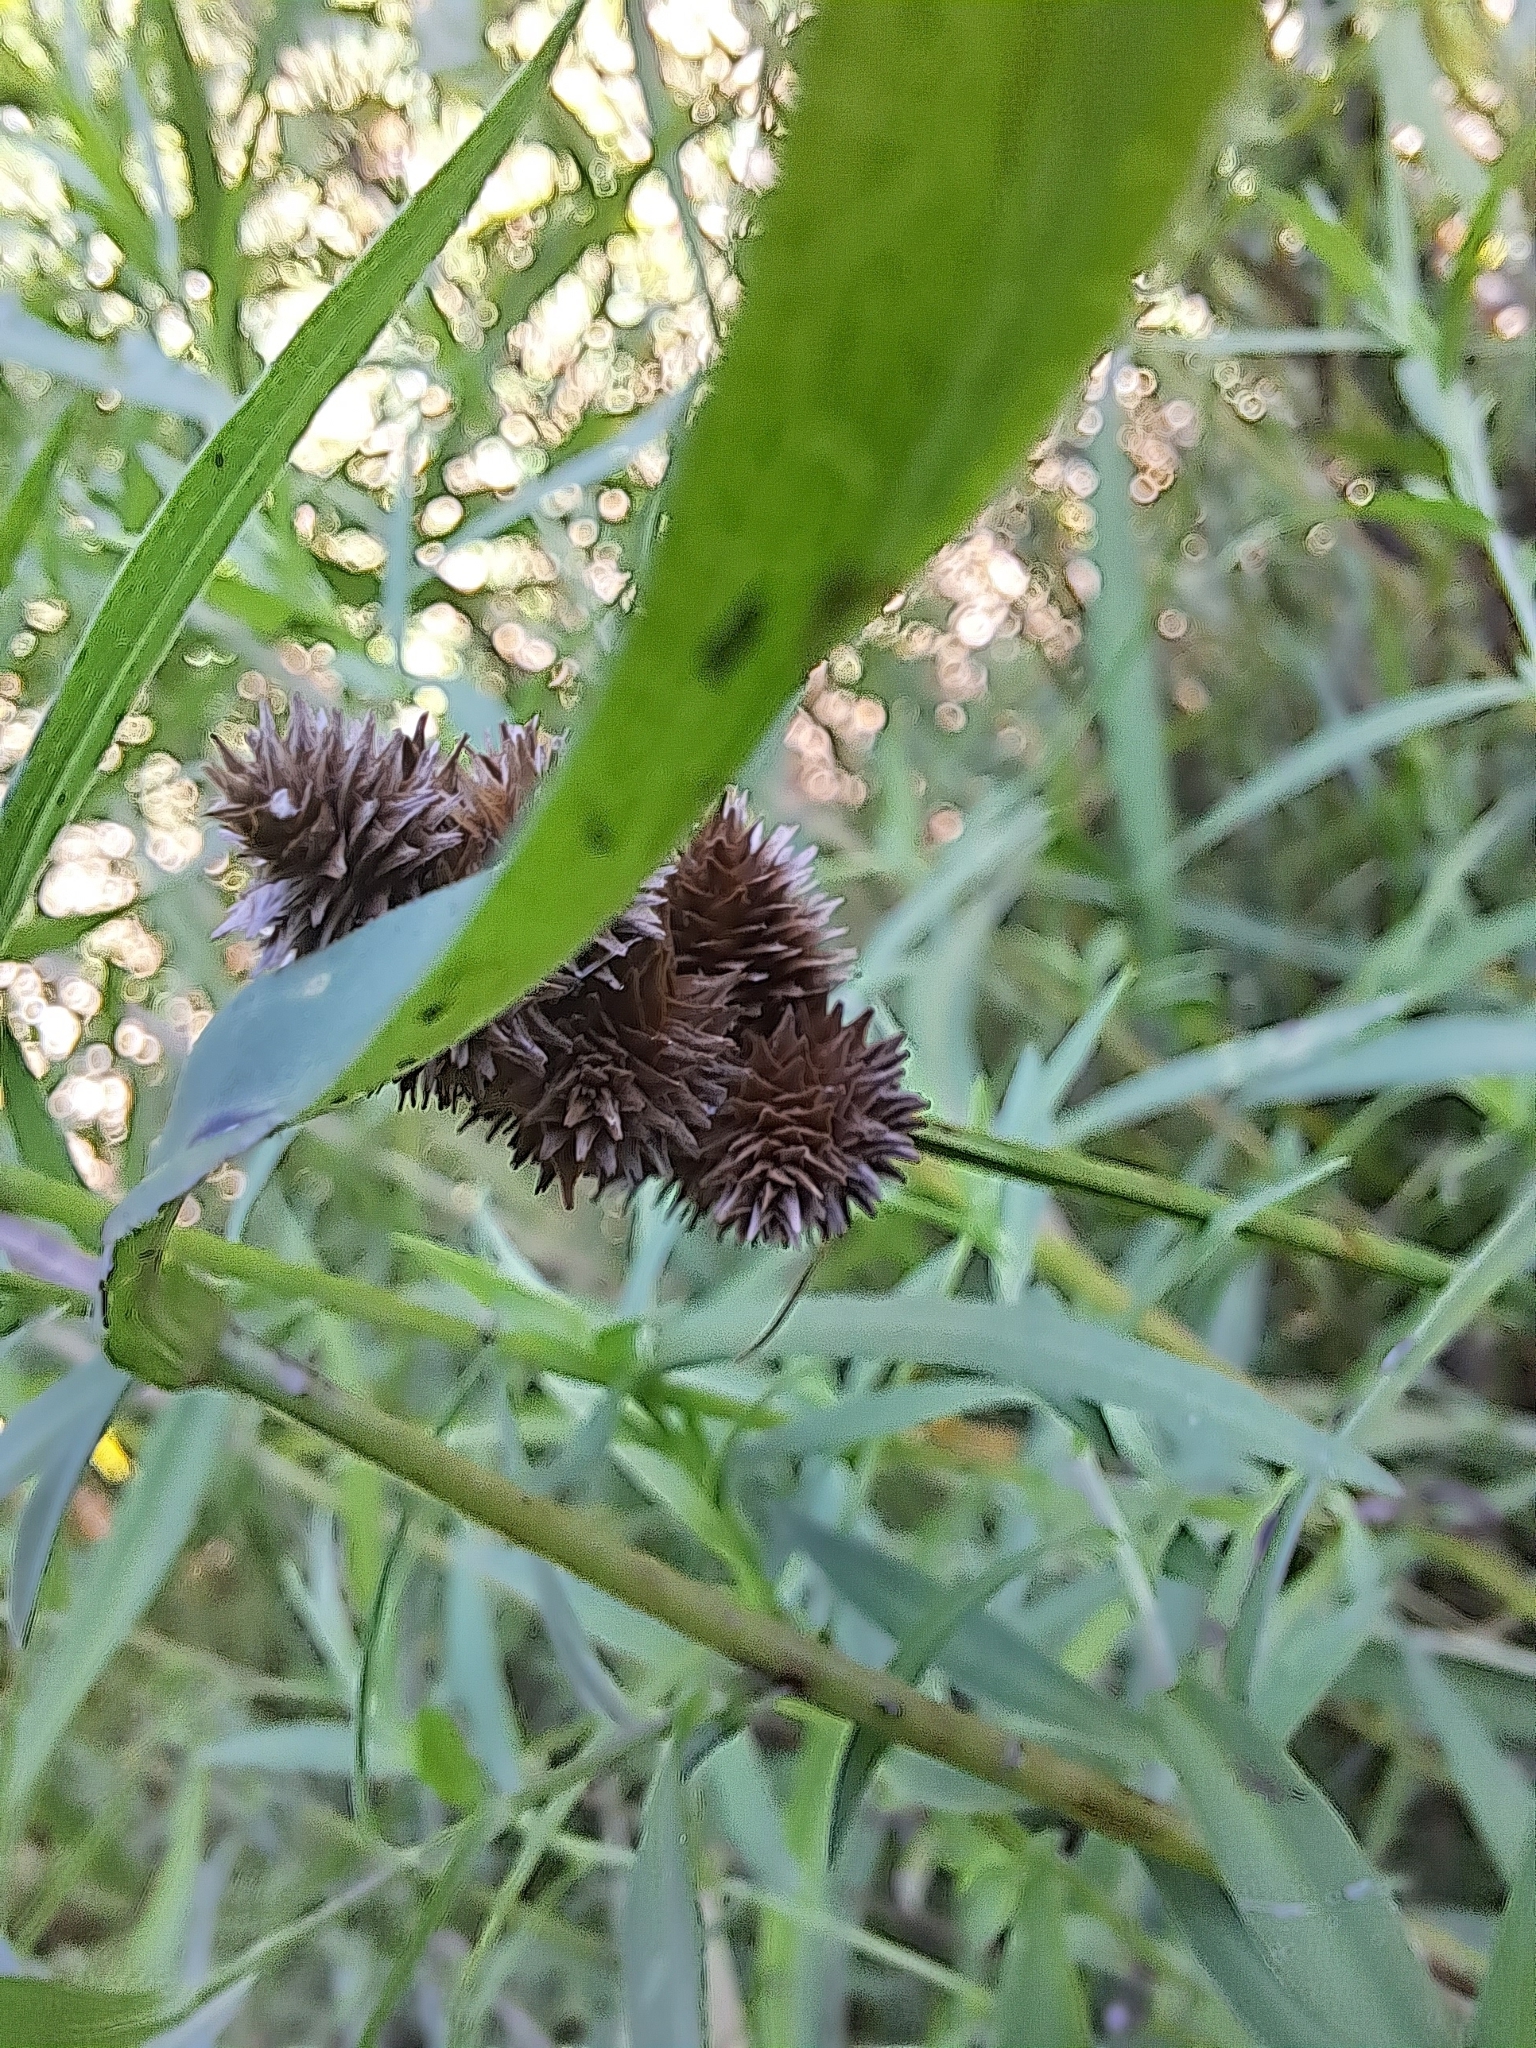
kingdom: Plantae
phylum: Tracheophyta
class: Liliopsida
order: Poales
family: Cyperaceae
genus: Carex
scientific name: Carex cristatella
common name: Crested oval sedge
